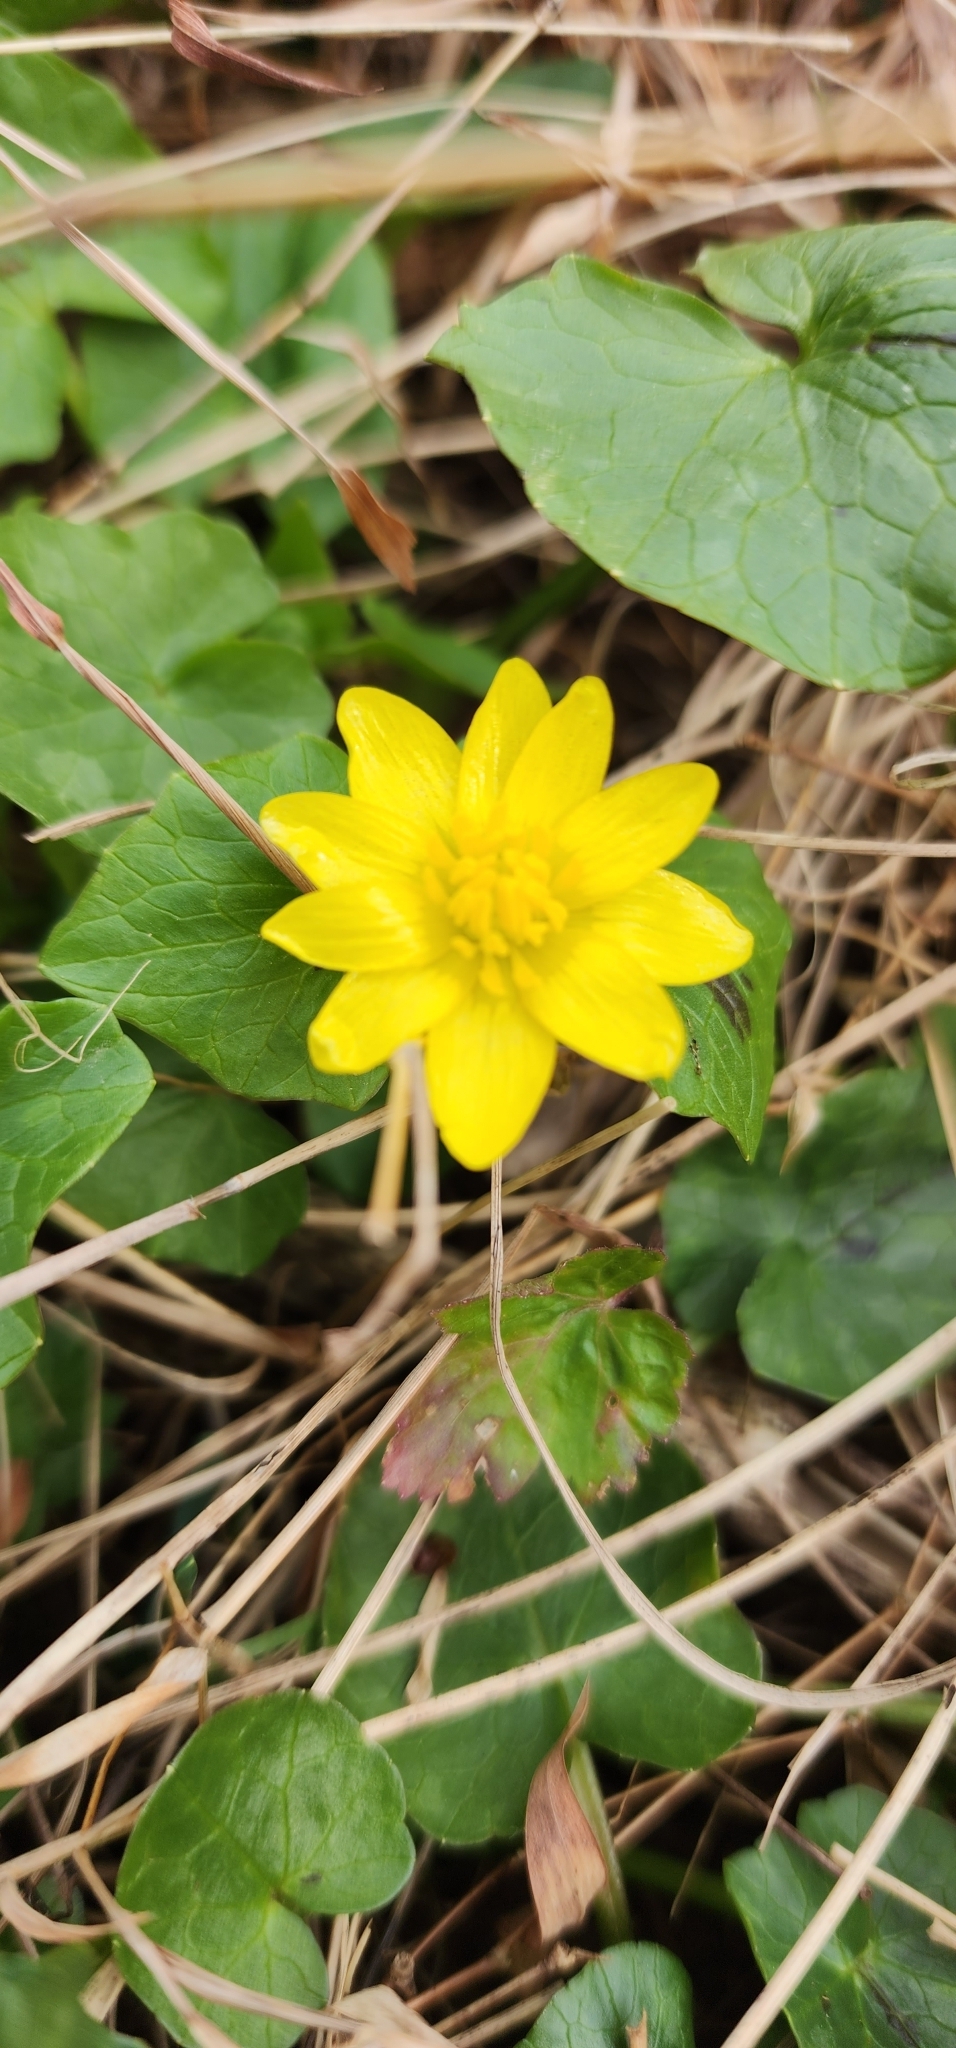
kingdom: Plantae
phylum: Tracheophyta
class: Magnoliopsida
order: Ranunculales
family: Ranunculaceae
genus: Ficaria
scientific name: Ficaria verna
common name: Lesser celandine
